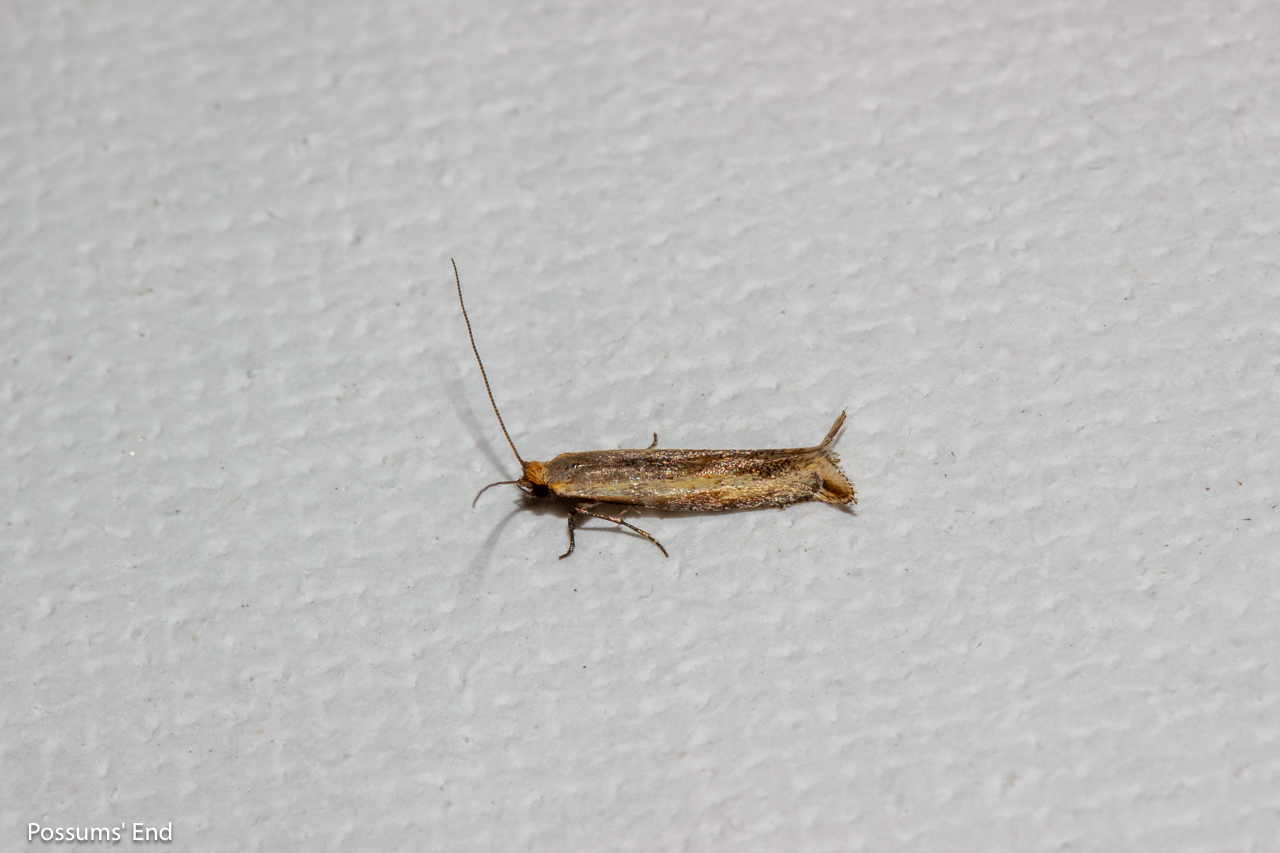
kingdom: Animalia
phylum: Arthropoda
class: Insecta
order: Lepidoptera
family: Tineidae
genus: Erechthias
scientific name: Erechthias charadrota
